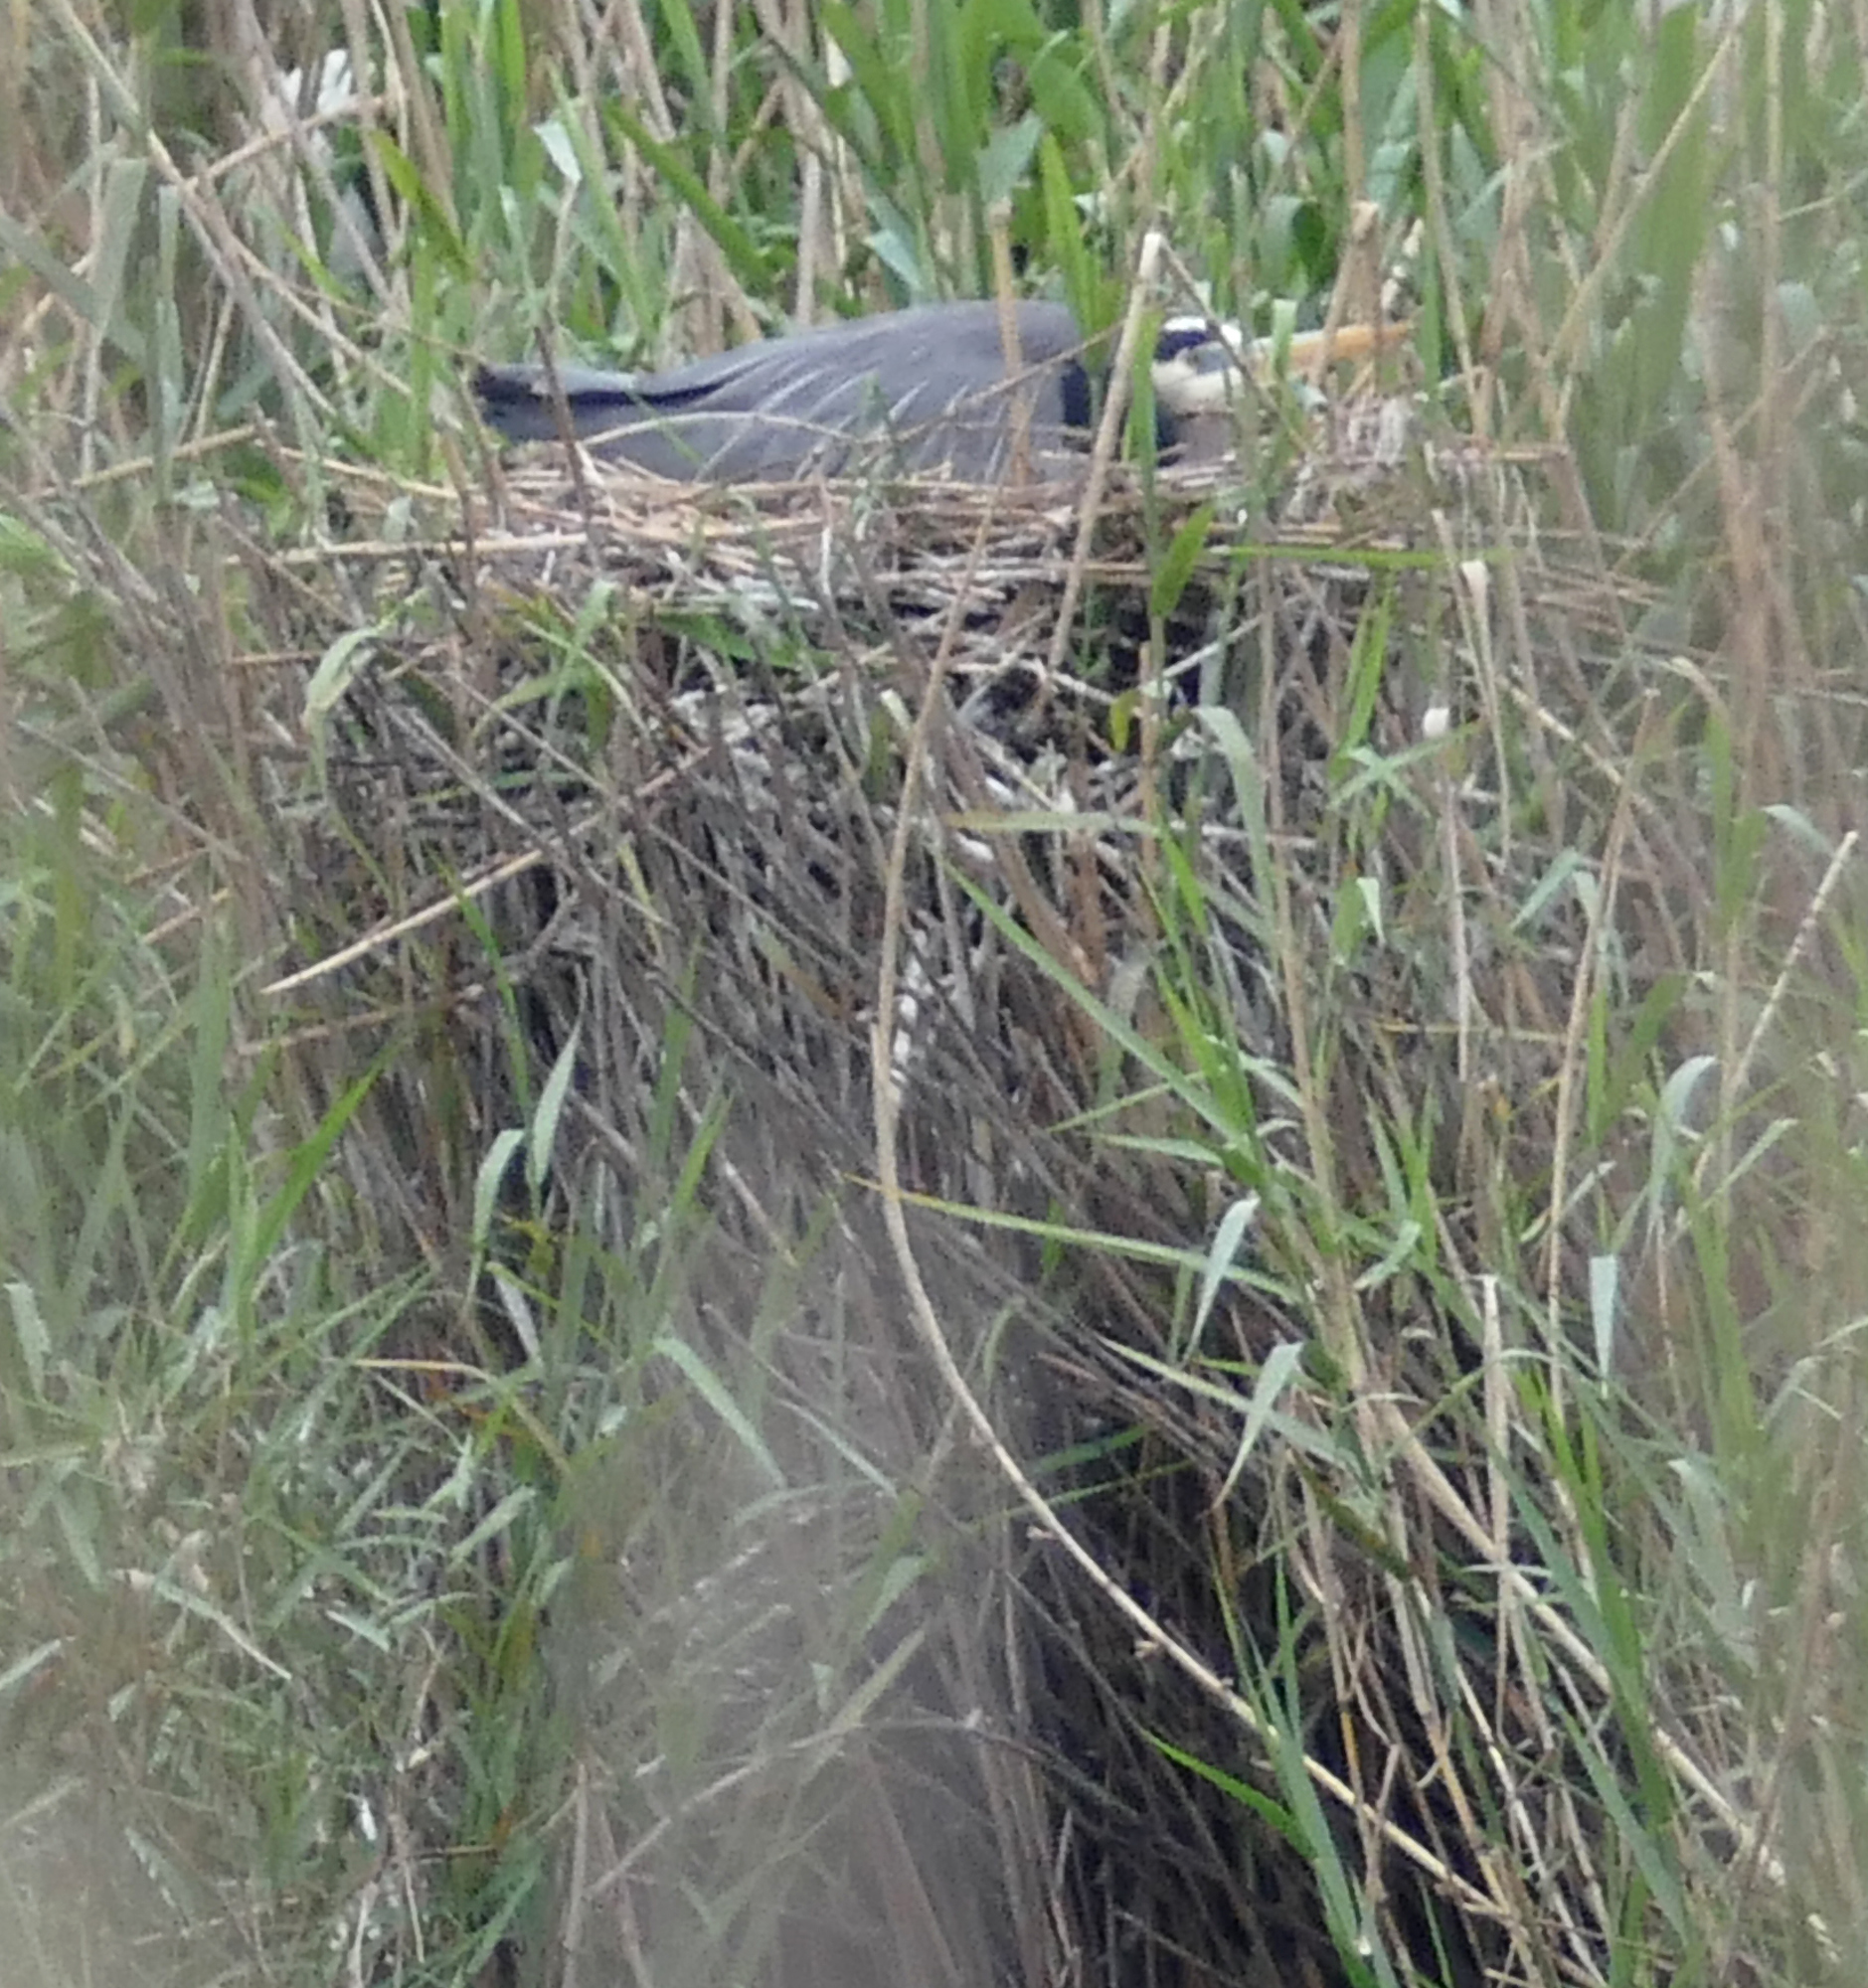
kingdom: Animalia
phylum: Chordata
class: Aves
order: Pelecaniformes
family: Ardeidae
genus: Ardea
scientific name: Ardea herodias
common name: Great blue heron
